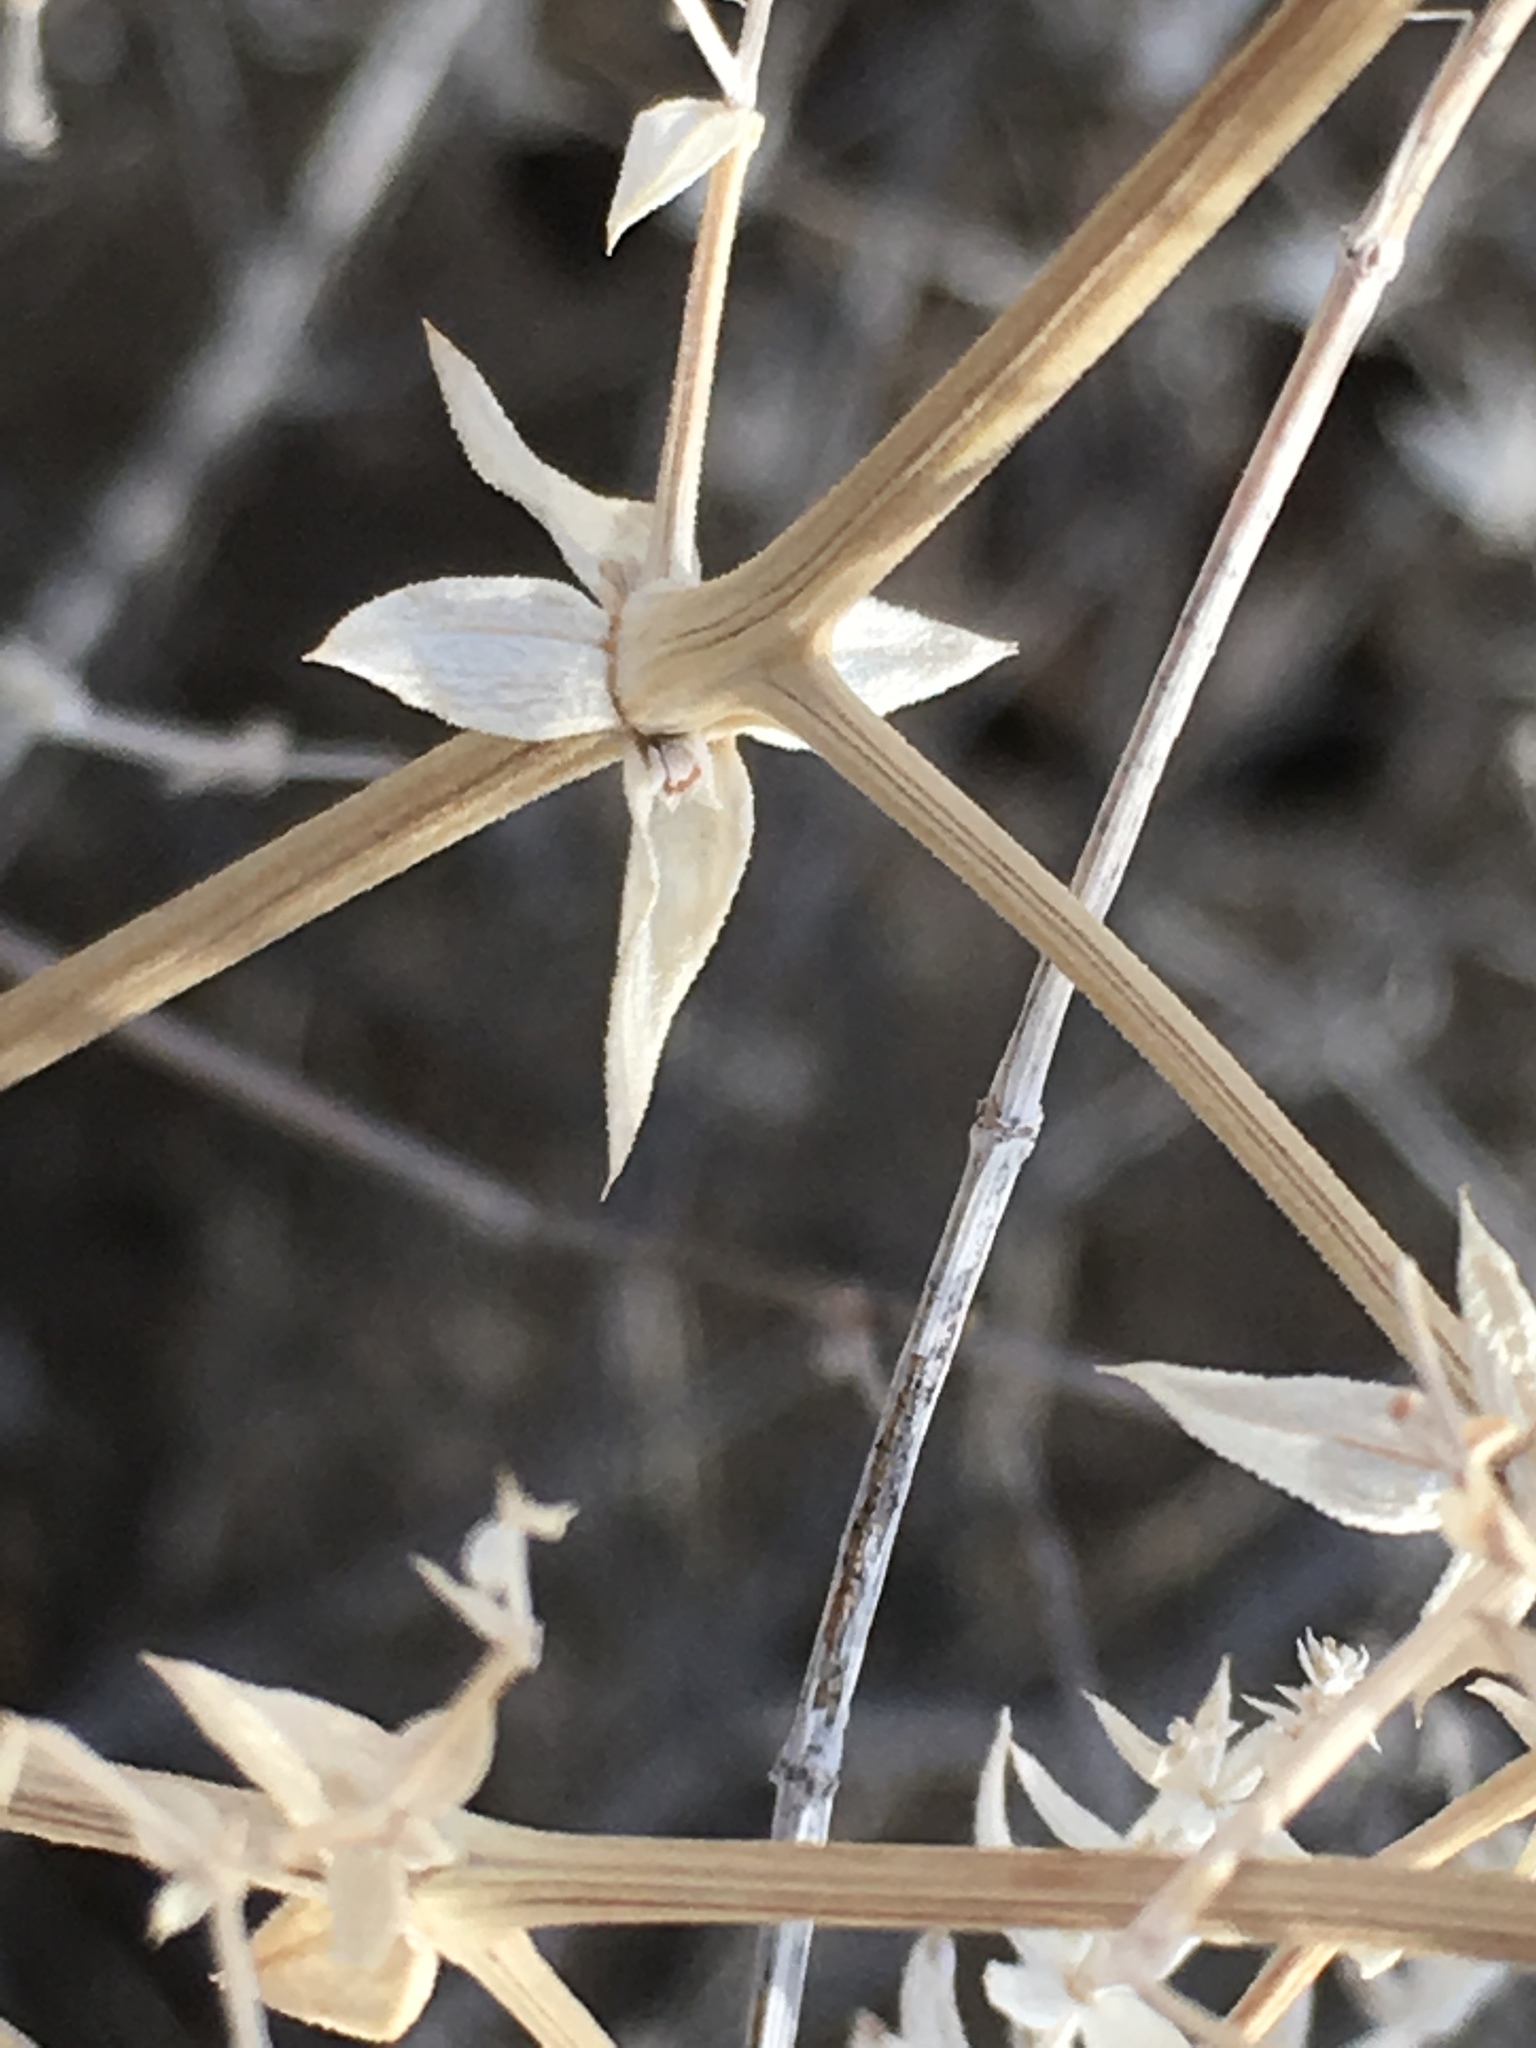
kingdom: Plantae
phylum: Tracheophyta
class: Magnoliopsida
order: Gentianales
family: Rubiaceae
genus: Galium
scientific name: Galium stellatum
